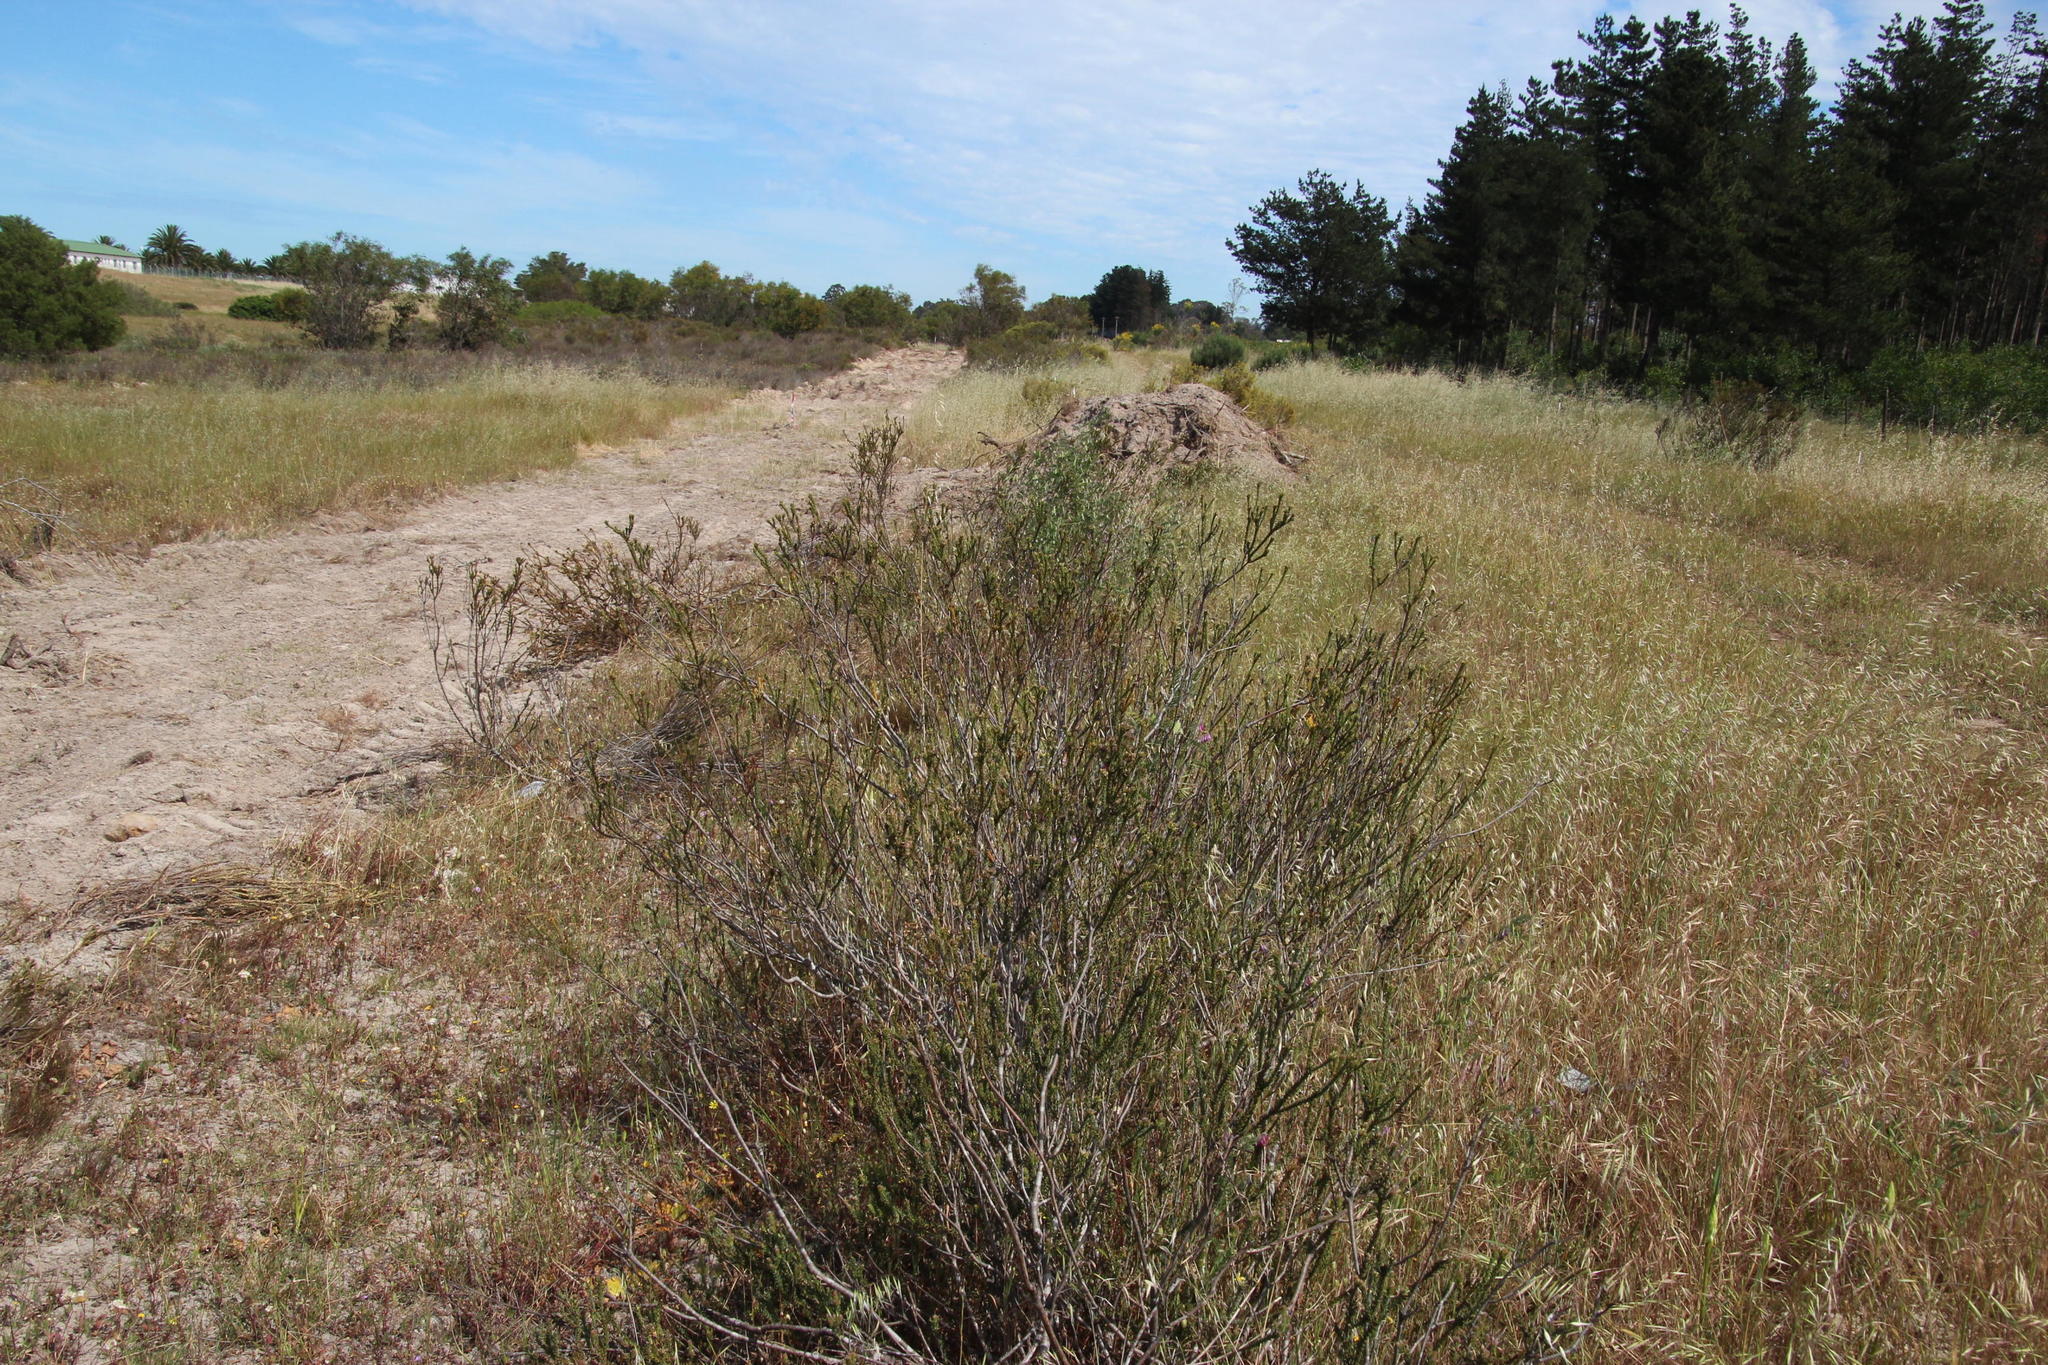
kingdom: Plantae
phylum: Tracheophyta
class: Magnoliopsida
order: Proteales
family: Proteaceae
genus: Leucadendron
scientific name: Leucadendron thymifolium
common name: Malmesbury conebush
